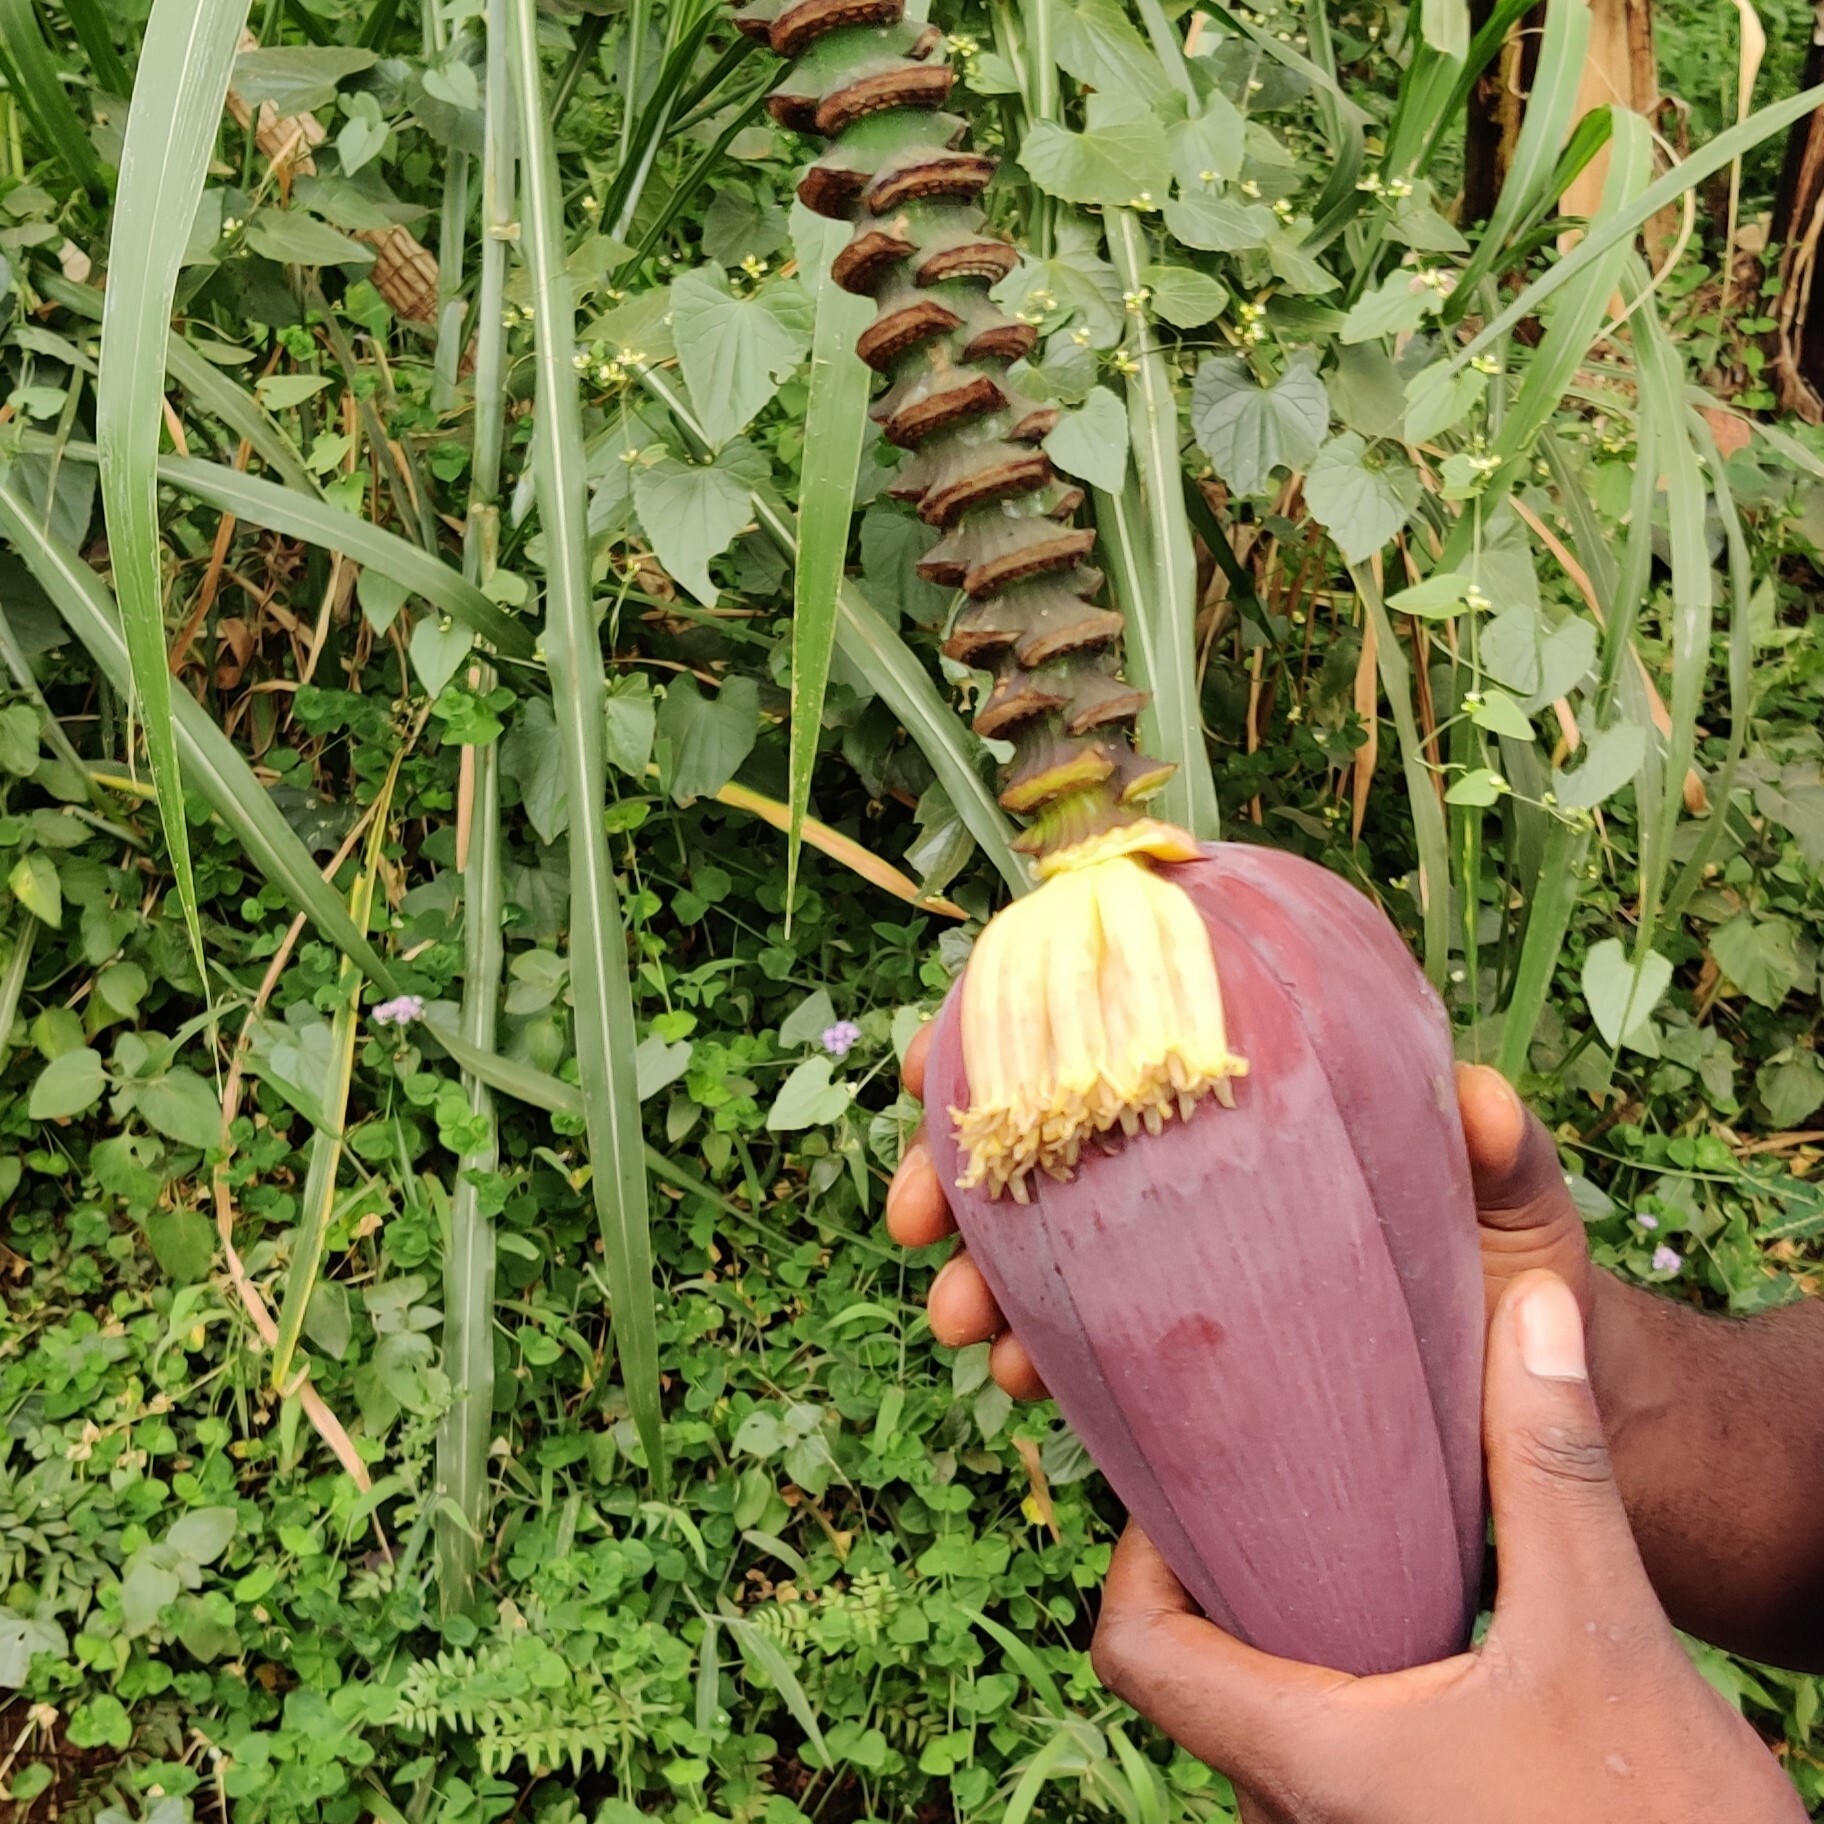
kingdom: Plantae
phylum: Tracheophyta
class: Liliopsida
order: Zingiberales
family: Musaceae
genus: Musa
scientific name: Musa acuminata
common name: Edible banana
